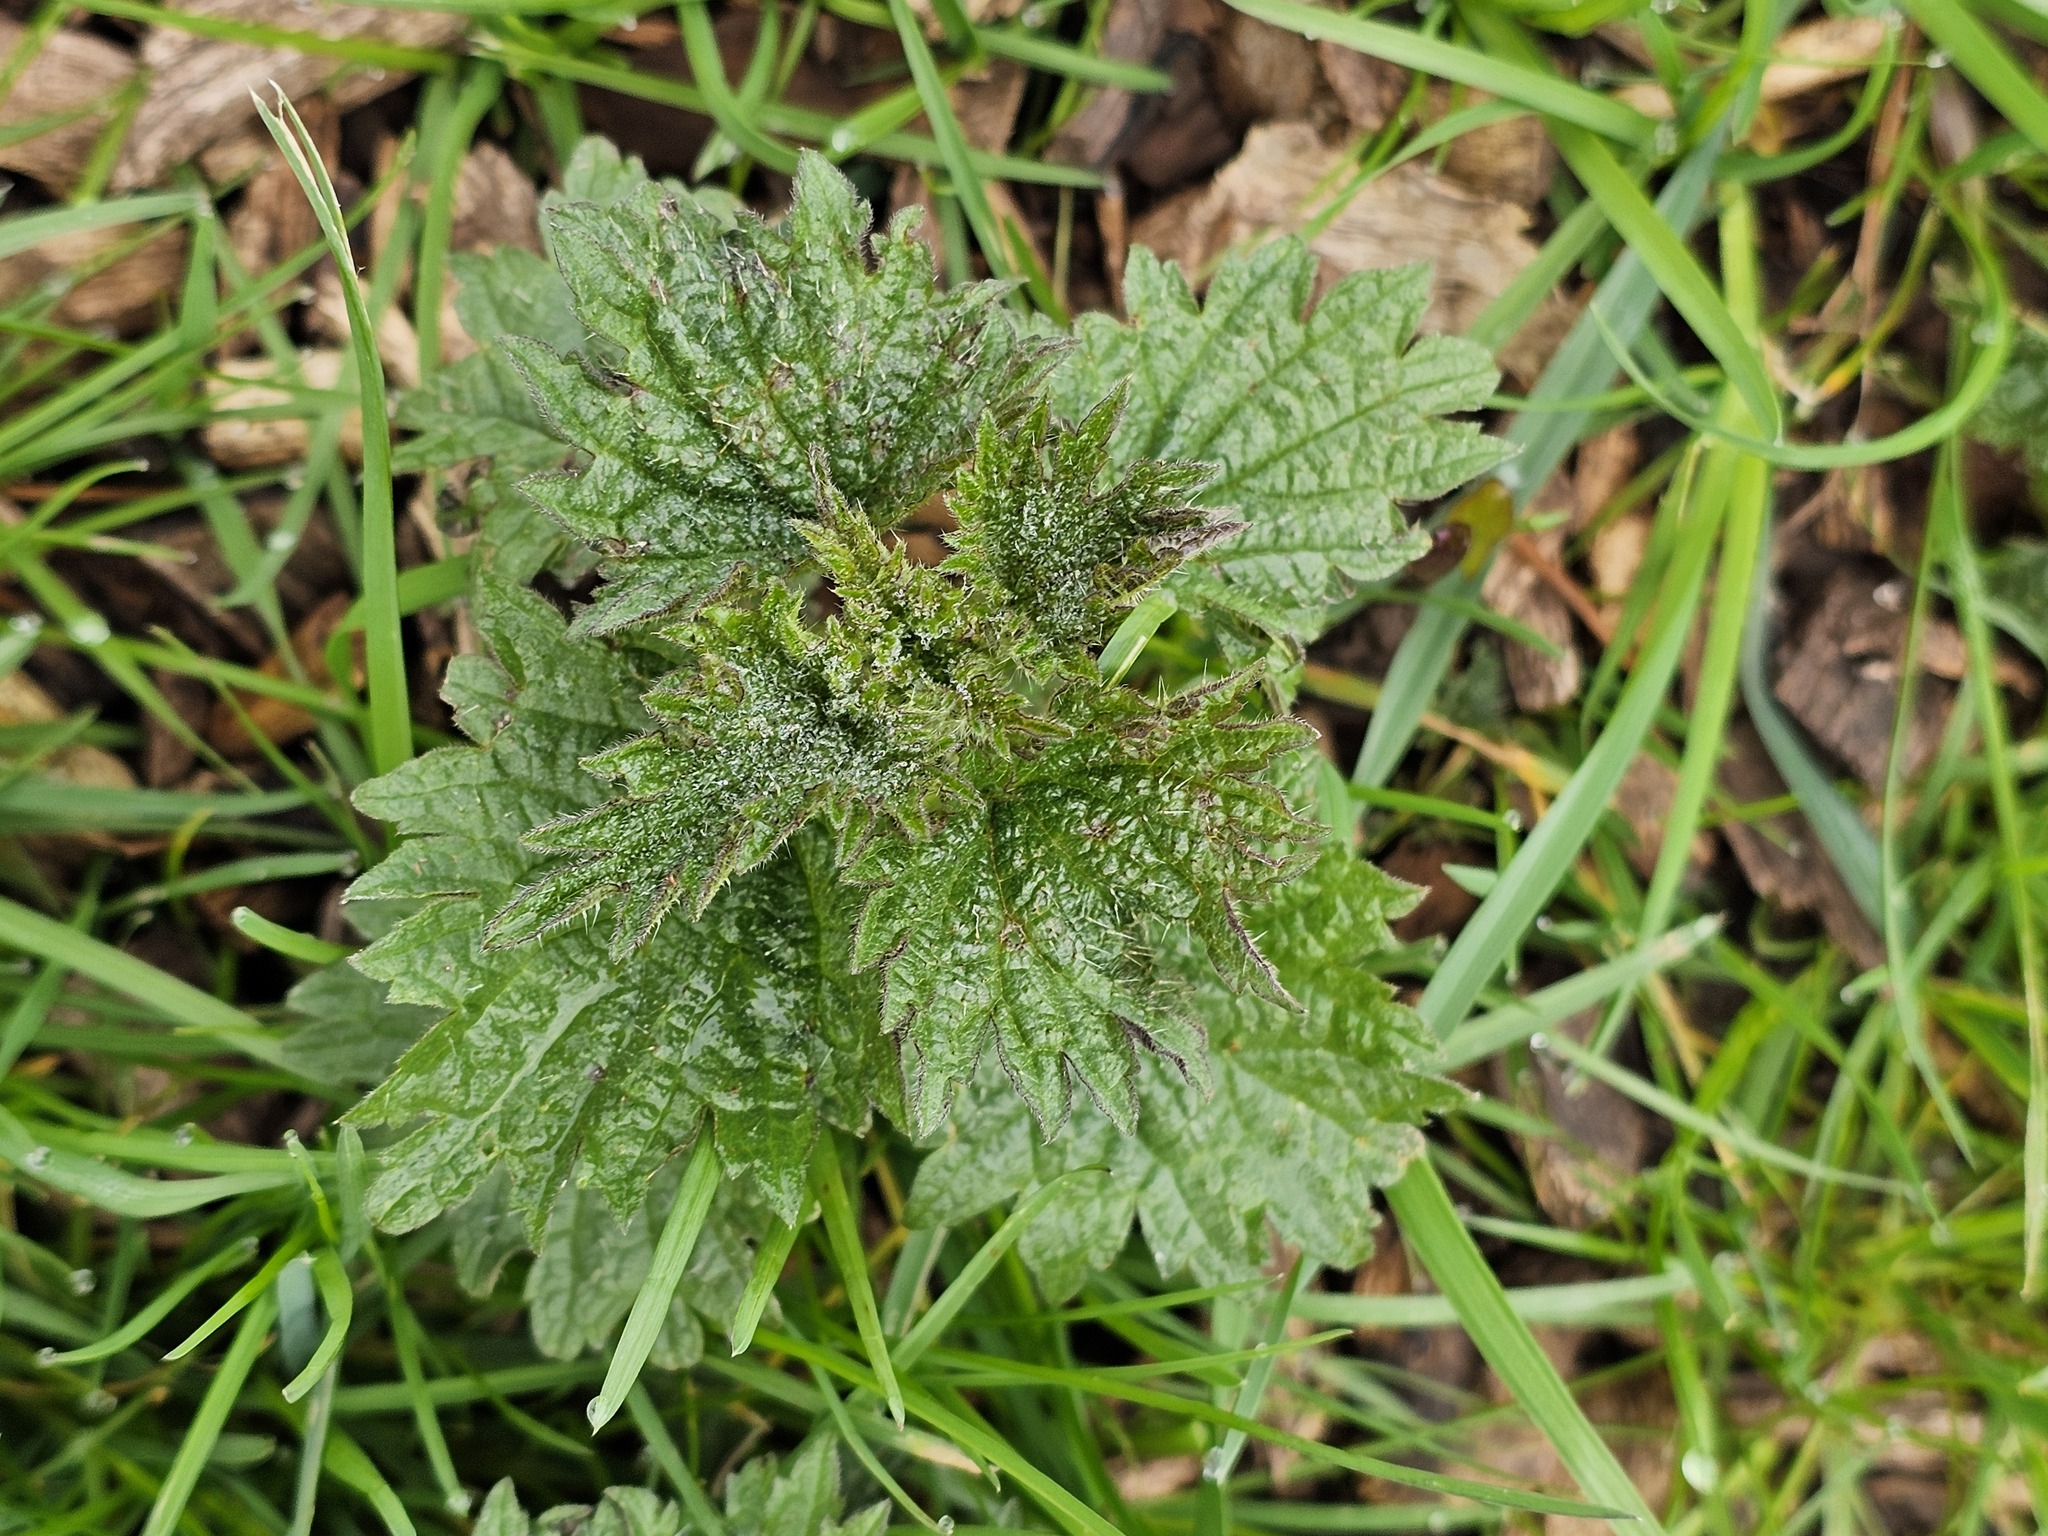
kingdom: Plantae
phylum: Tracheophyta
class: Magnoliopsida
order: Rosales
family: Urticaceae
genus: Urtica
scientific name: Urtica dioica
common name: Common nettle
